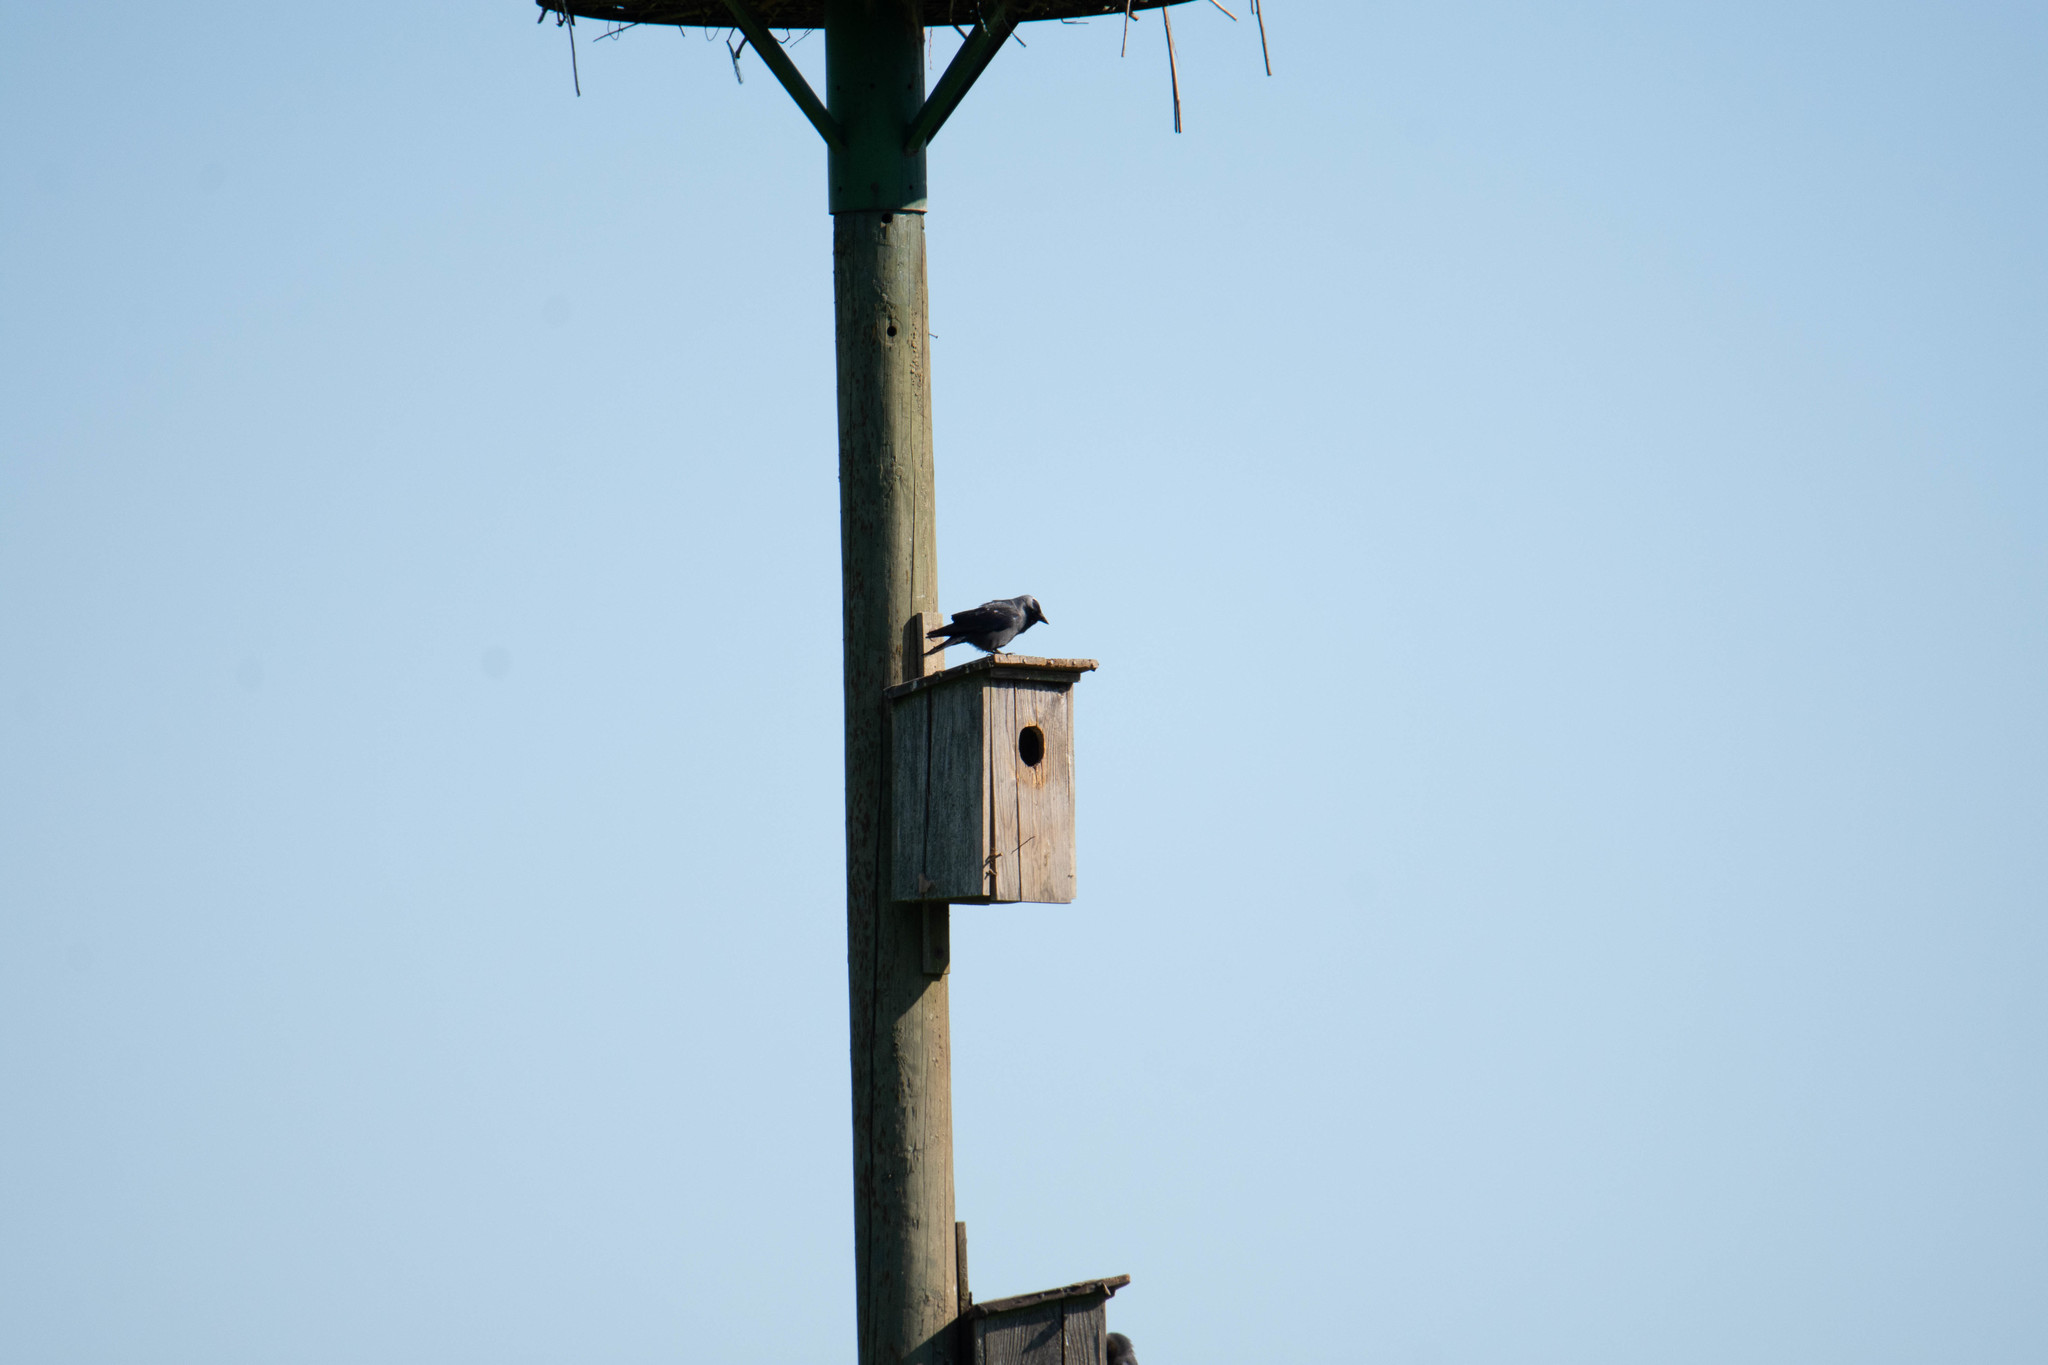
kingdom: Animalia
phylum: Chordata
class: Aves
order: Passeriformes
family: Corvidae
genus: Coloeus
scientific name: Coloeus monedula
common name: Western jackdaw
